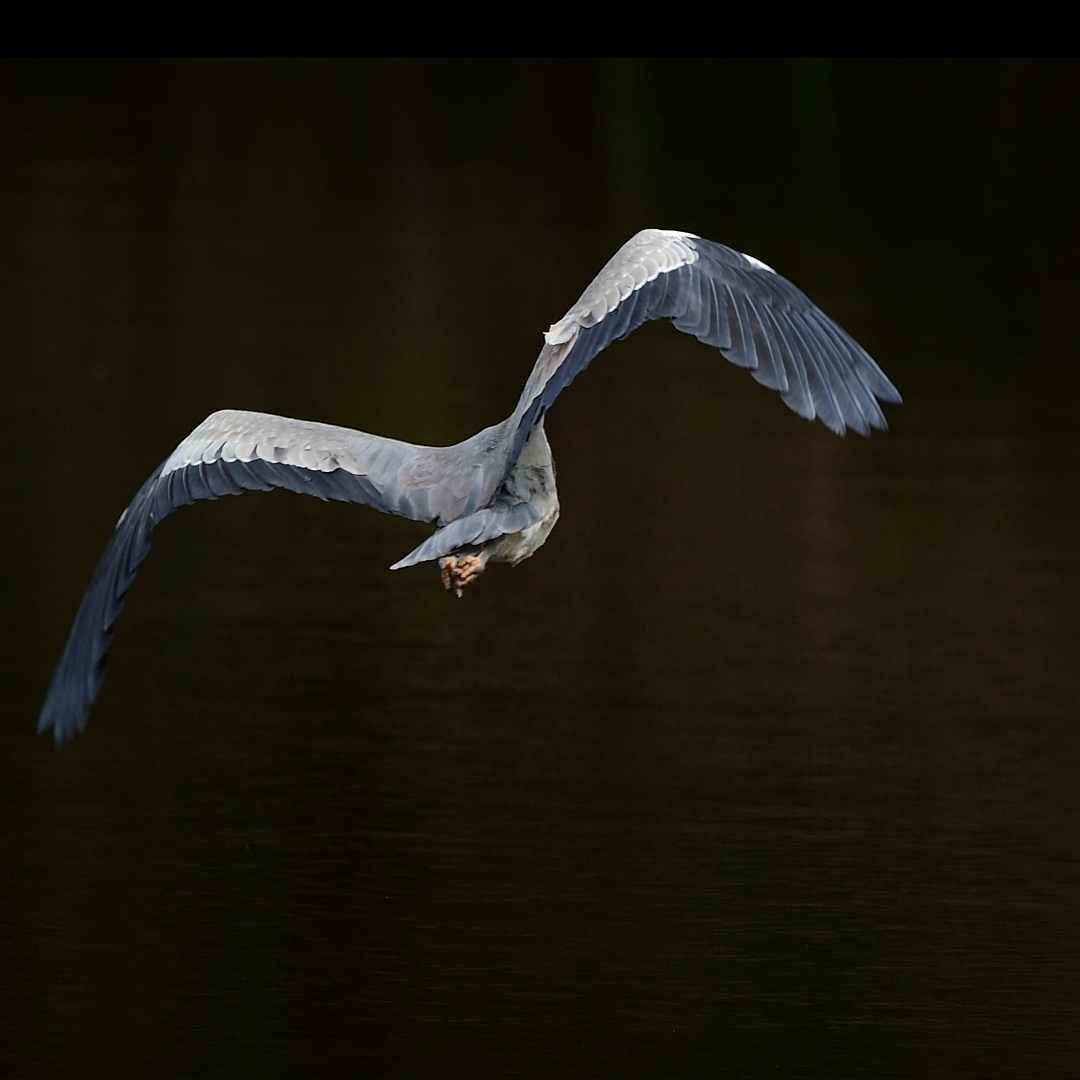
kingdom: Animalia
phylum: Chordata
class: Aves
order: Pelecaniformes
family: Ardeidae
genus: Ardea
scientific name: Ardea cinerea
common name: Grey heron
